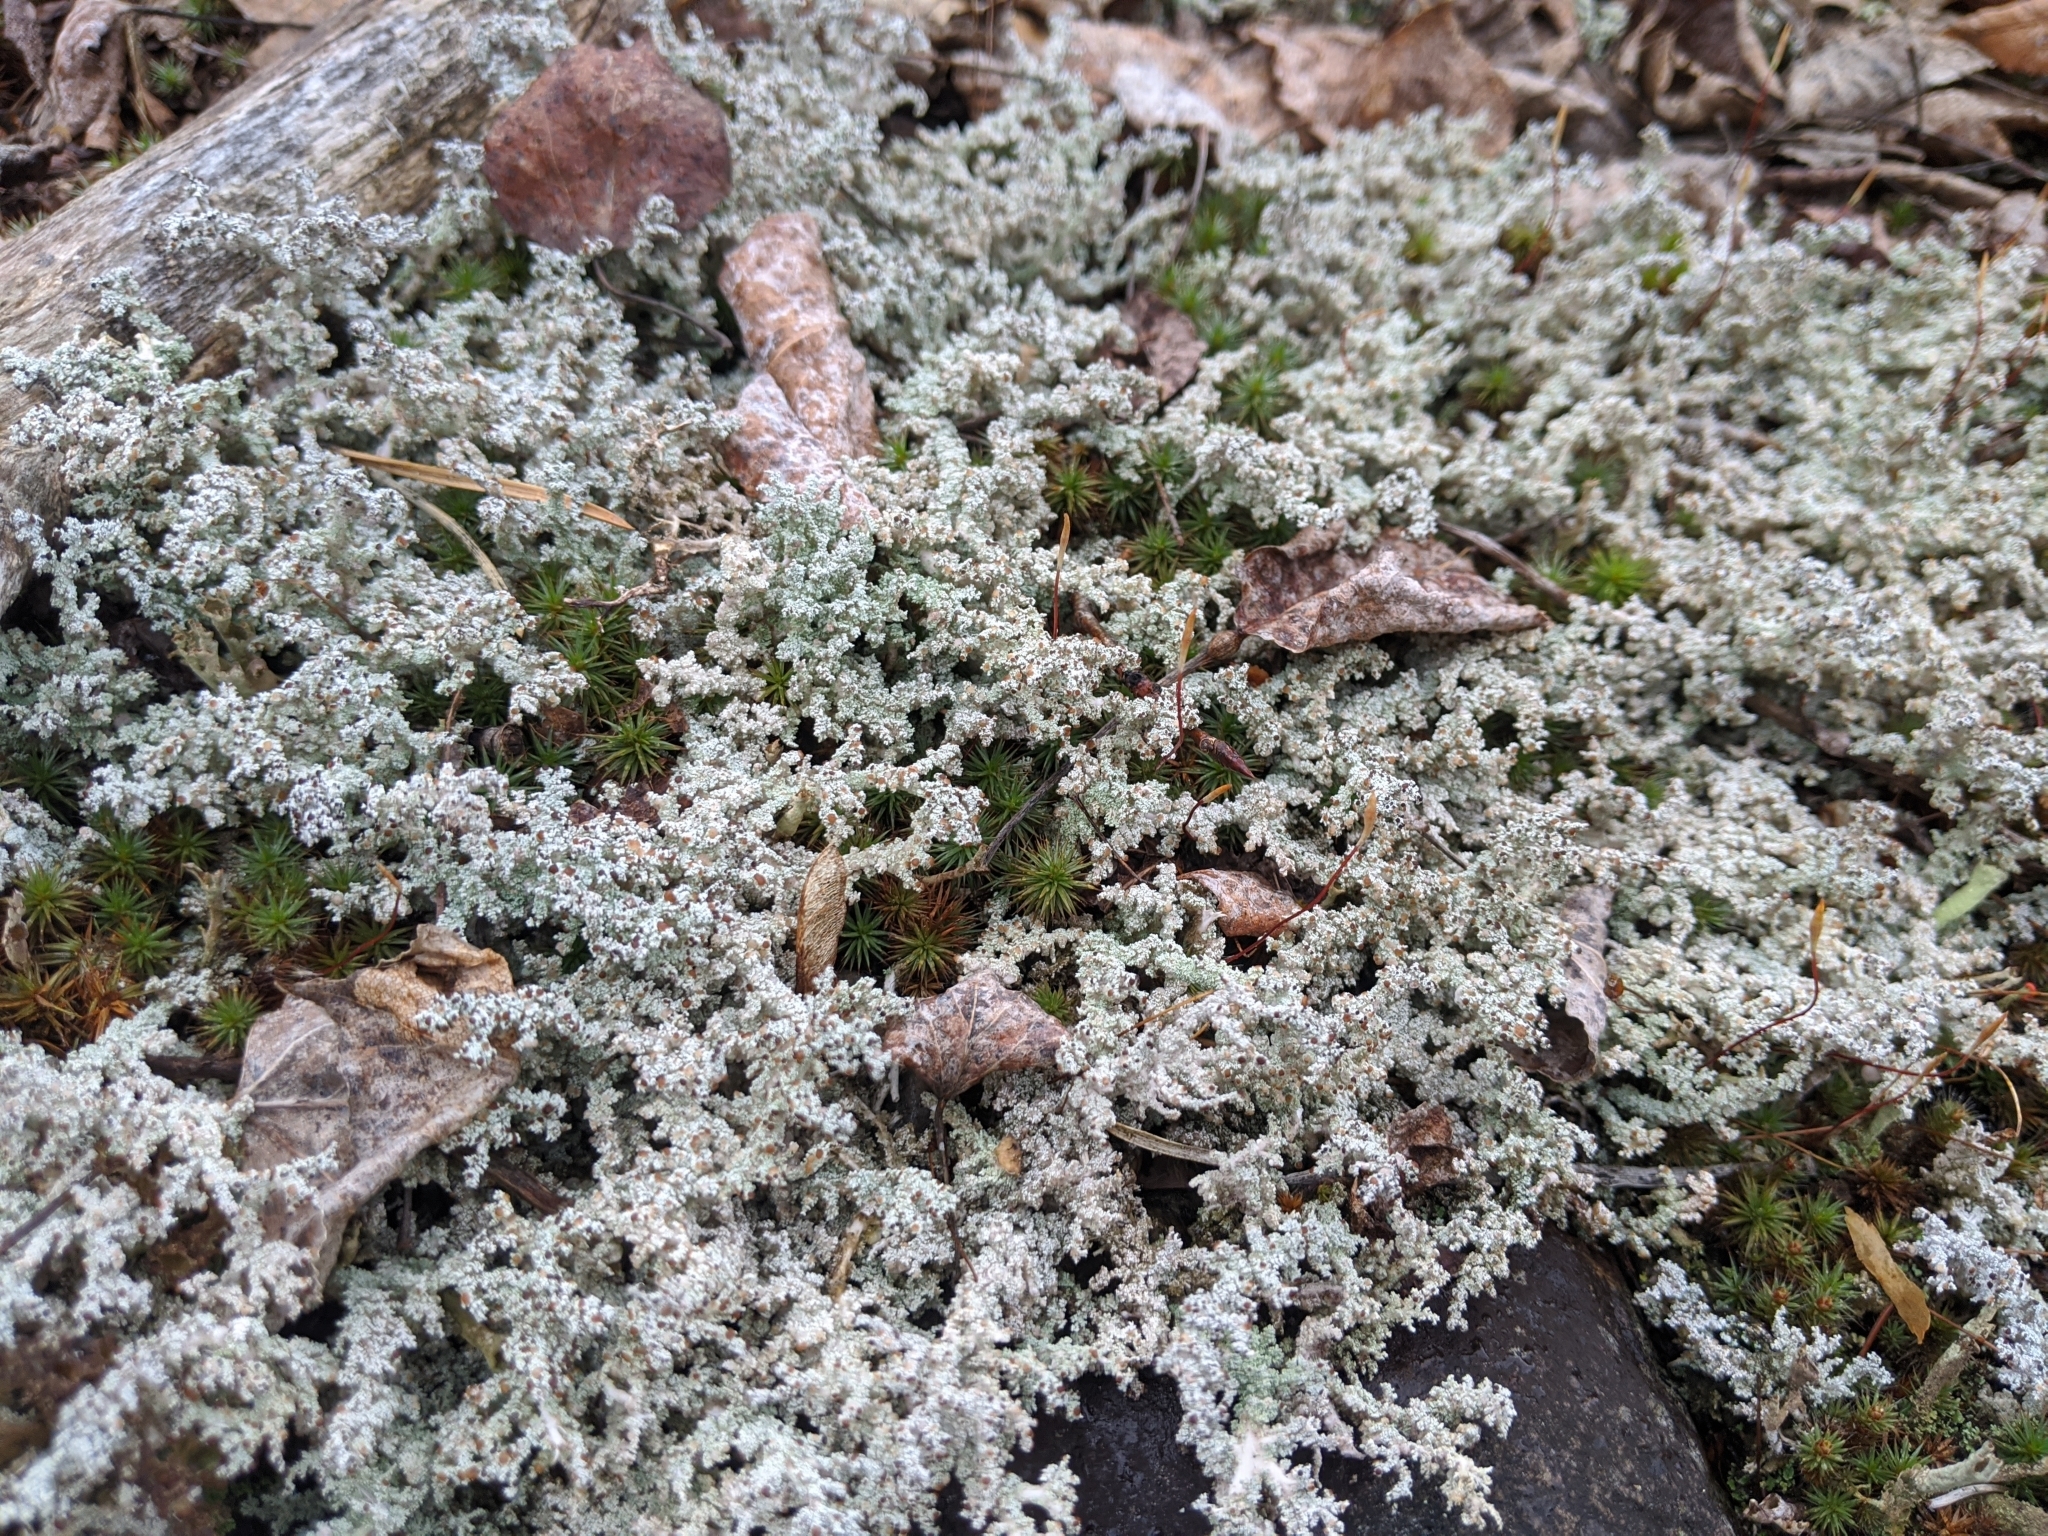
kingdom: Fungi
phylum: Ascomycota
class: Lecanoromycetes
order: Lecanorales
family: Cladoniaceae
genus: Cladonia
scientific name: Cladonia rangiferina
